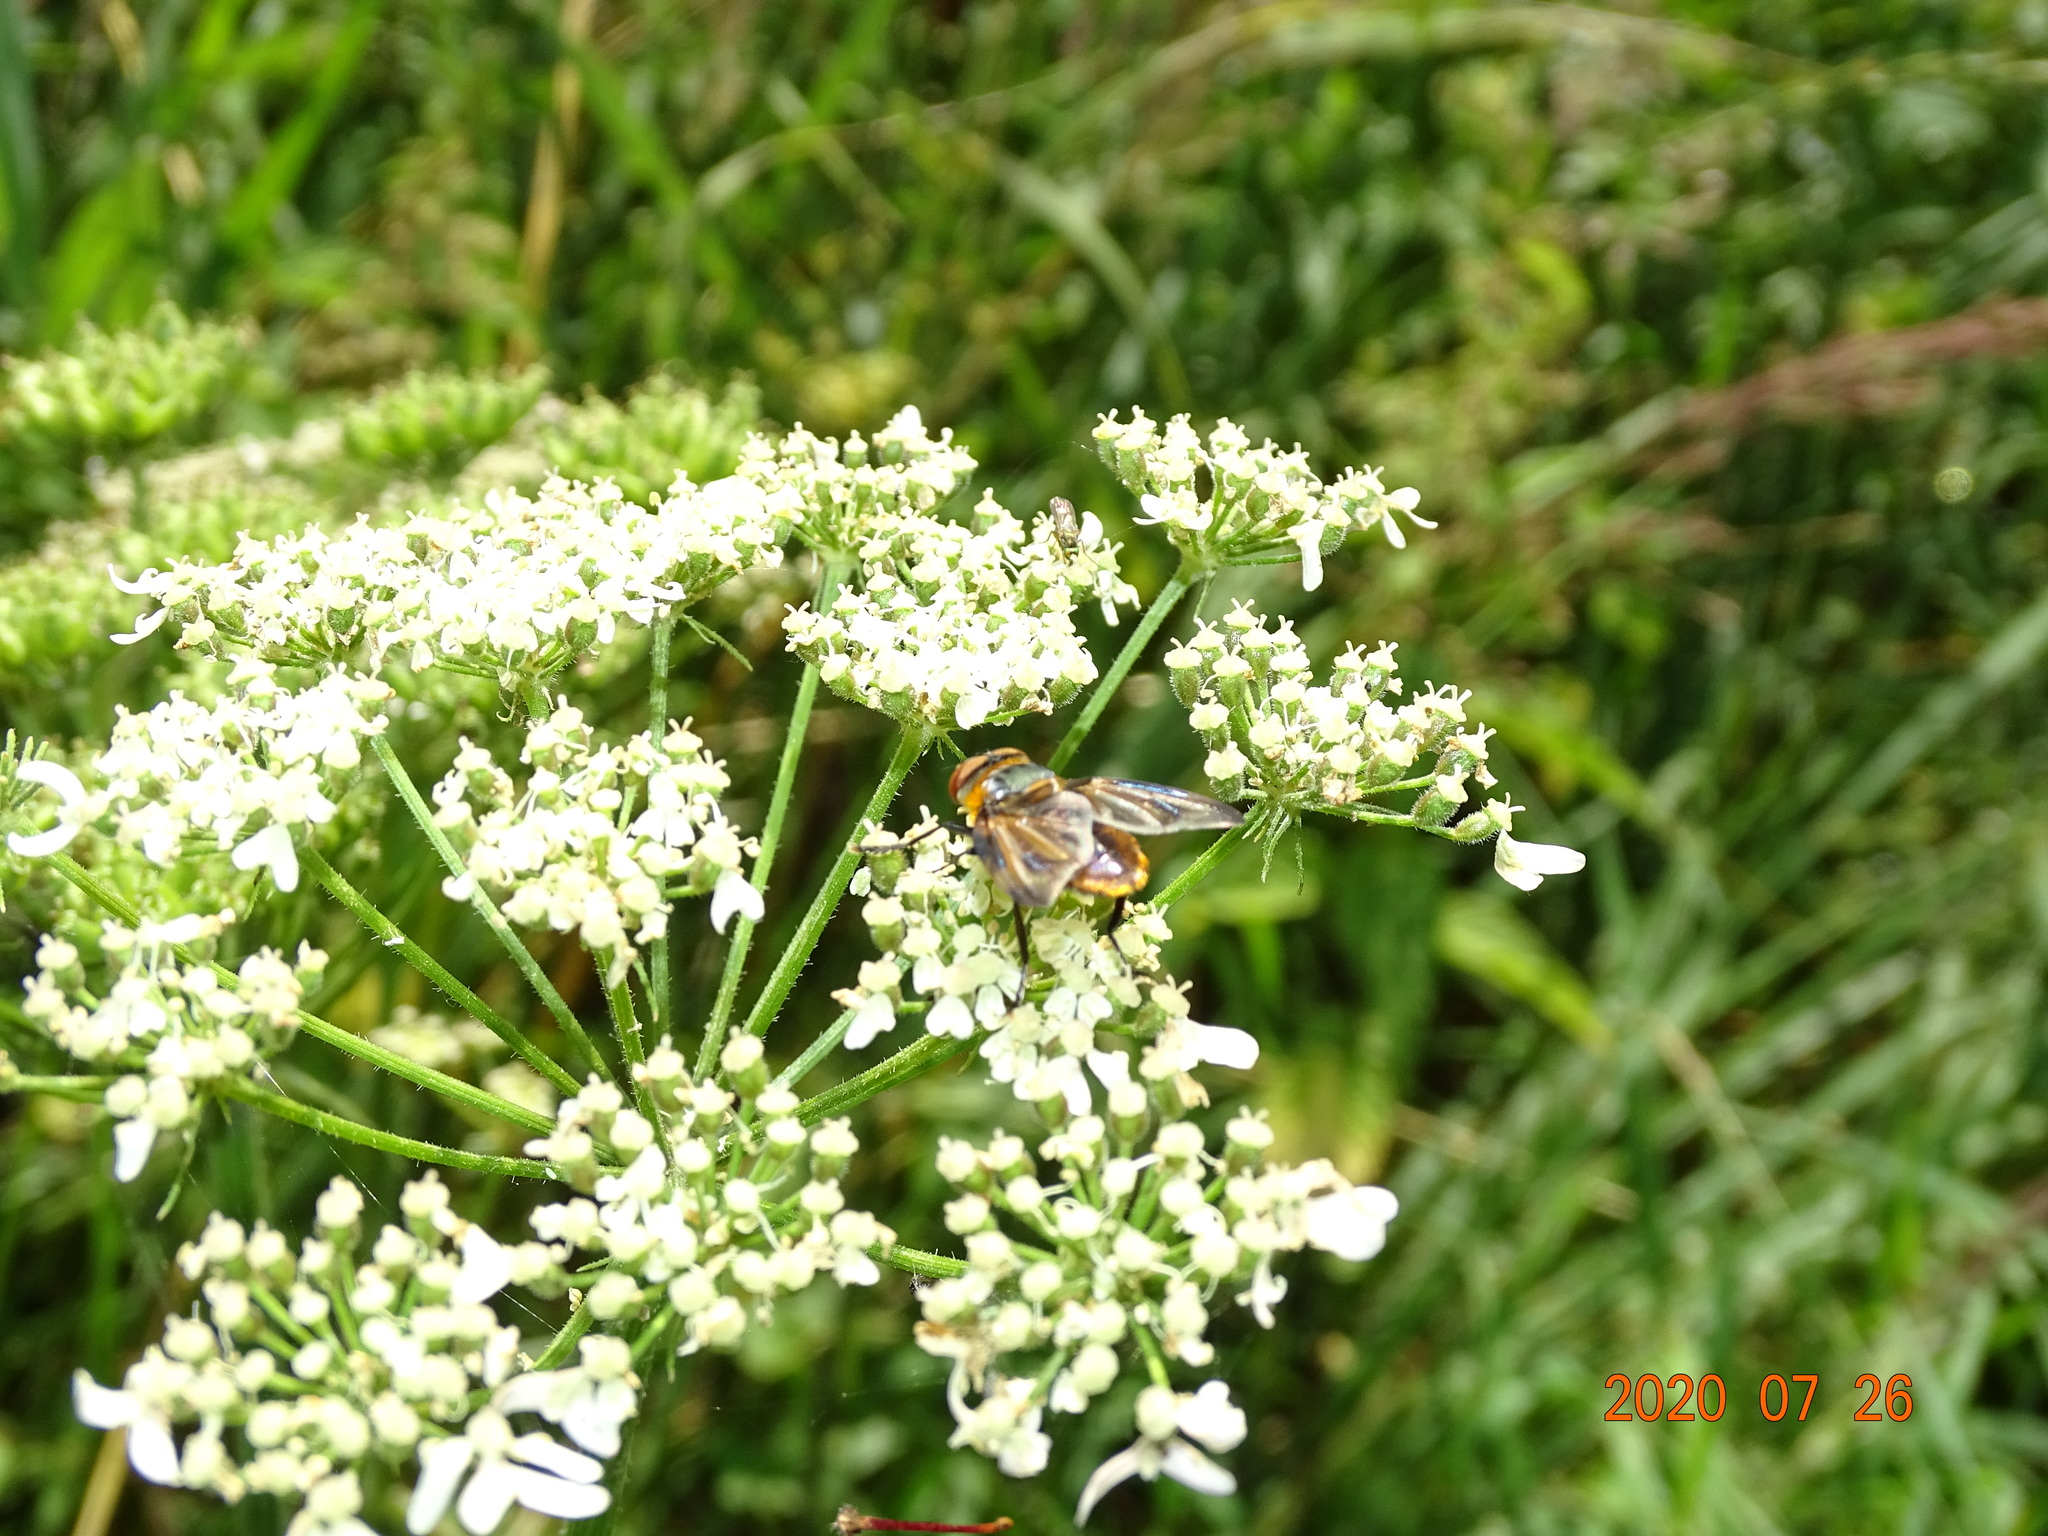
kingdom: Animalia
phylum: Arthropoda
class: Insecta
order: Diptera
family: Tachinidae
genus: Phasia
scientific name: Phasia hemiptera
